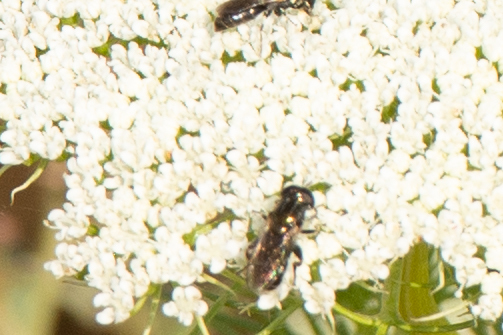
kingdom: Animalia
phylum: Arthropoda
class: Insecta
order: Diptera
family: Syrphidae
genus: Eumerus
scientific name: Eumerus
